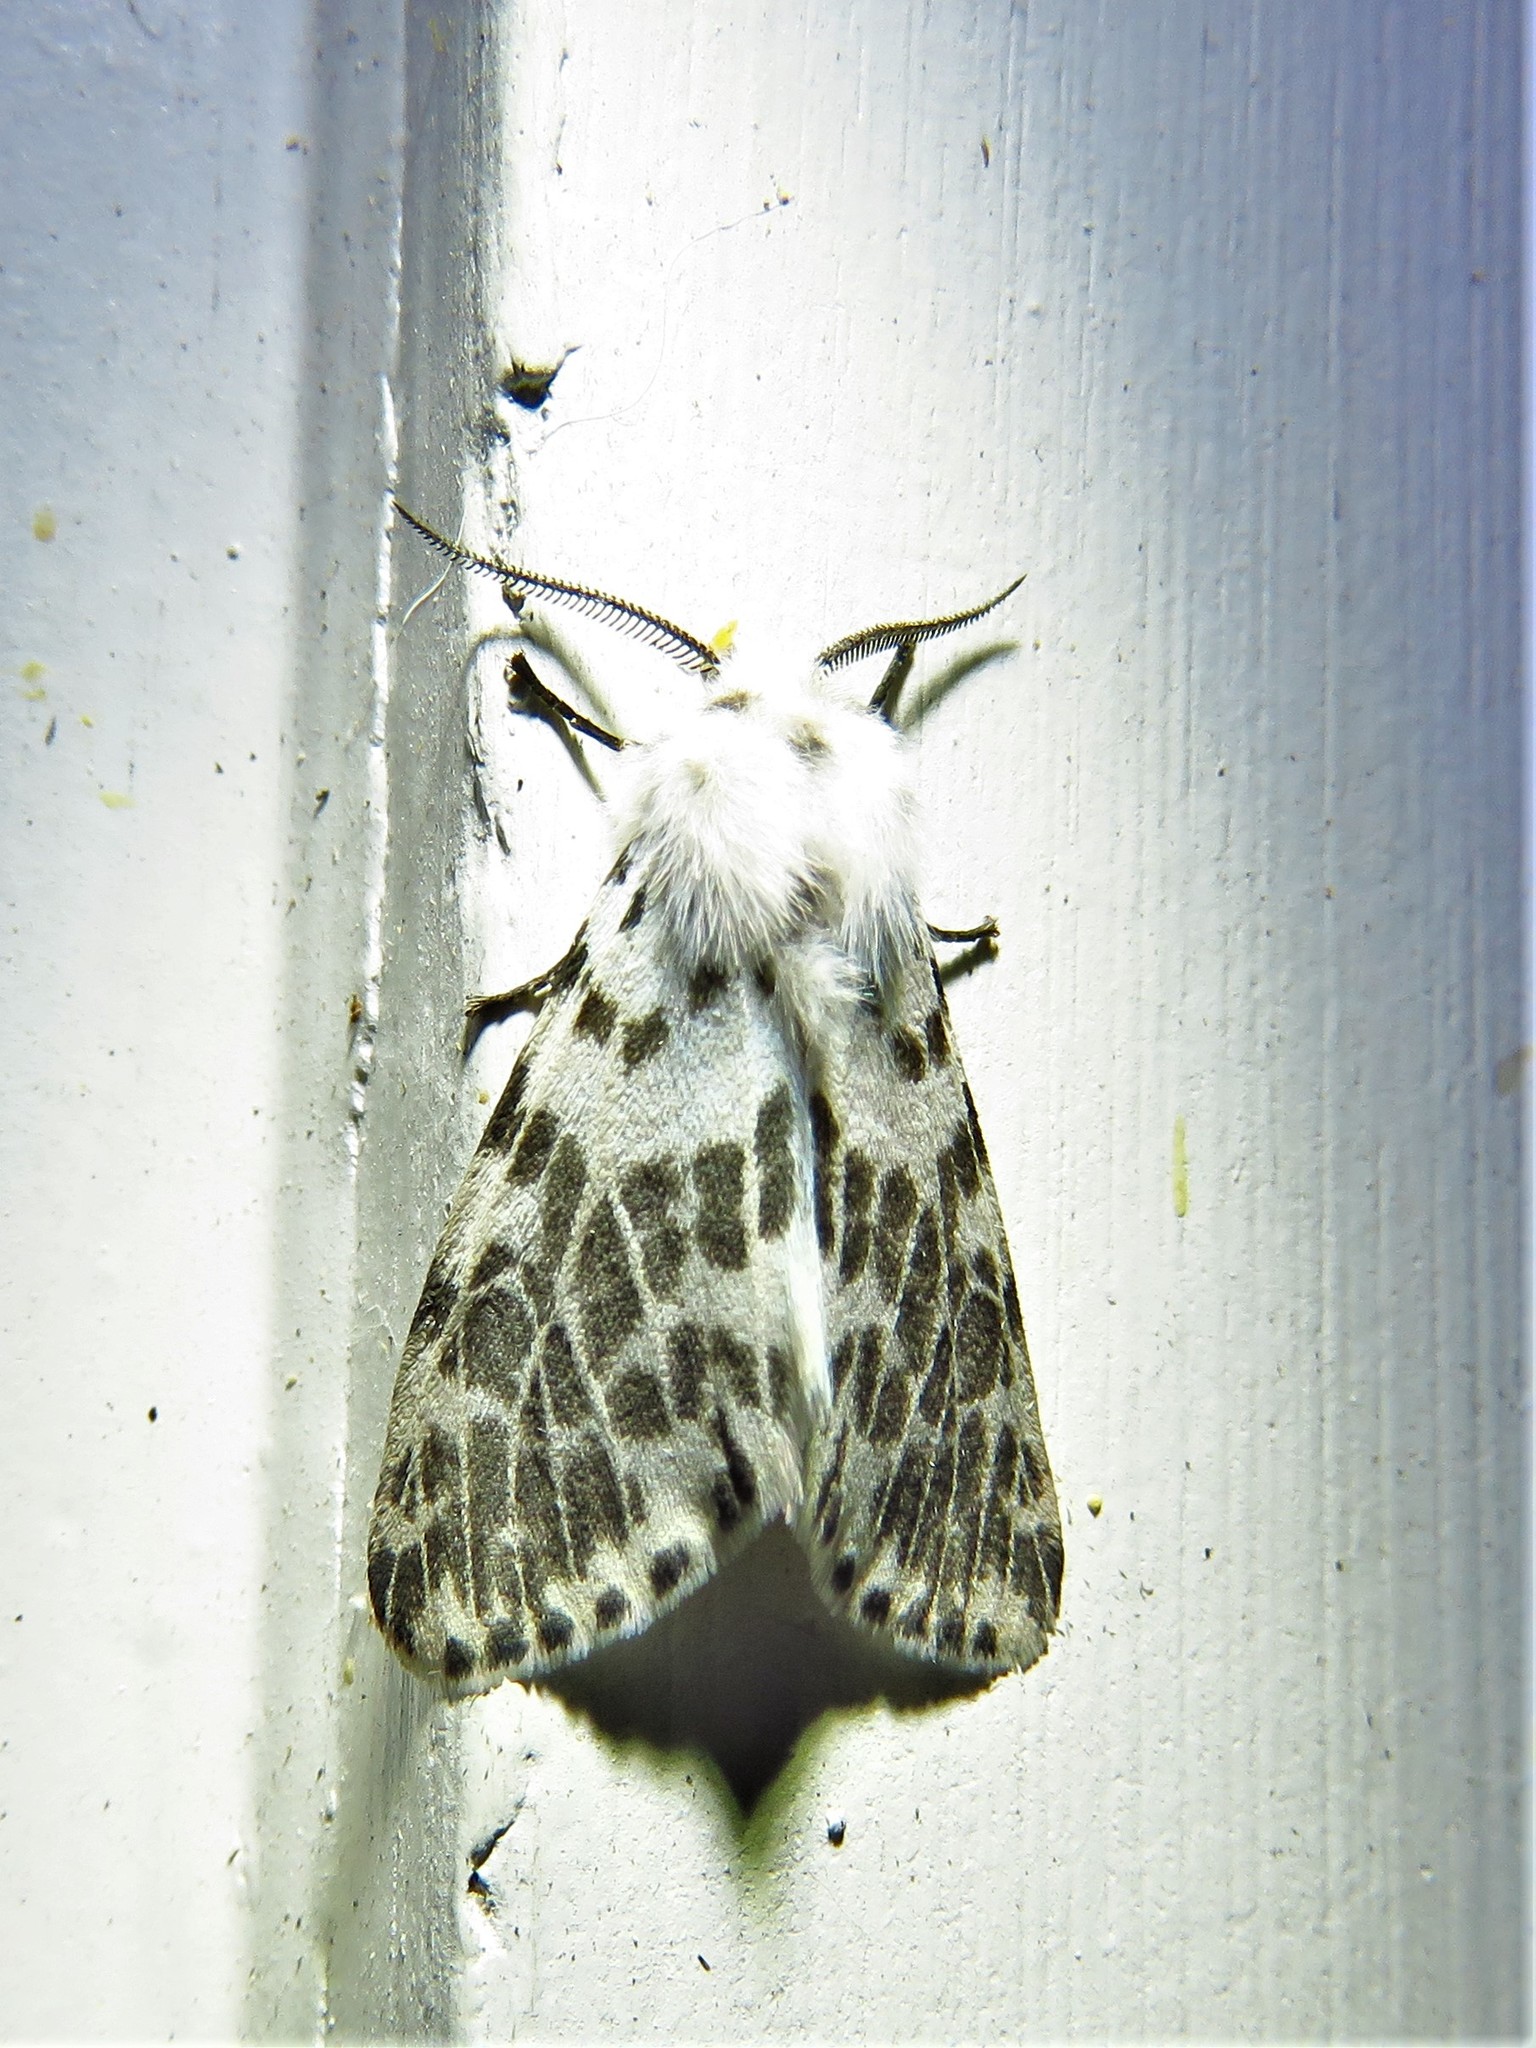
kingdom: Animalia
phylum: Arthropoda
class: Insecta
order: Lepidoptera
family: Erebidae
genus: Hyphantria
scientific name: Hyphantria cunea
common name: American white moth
